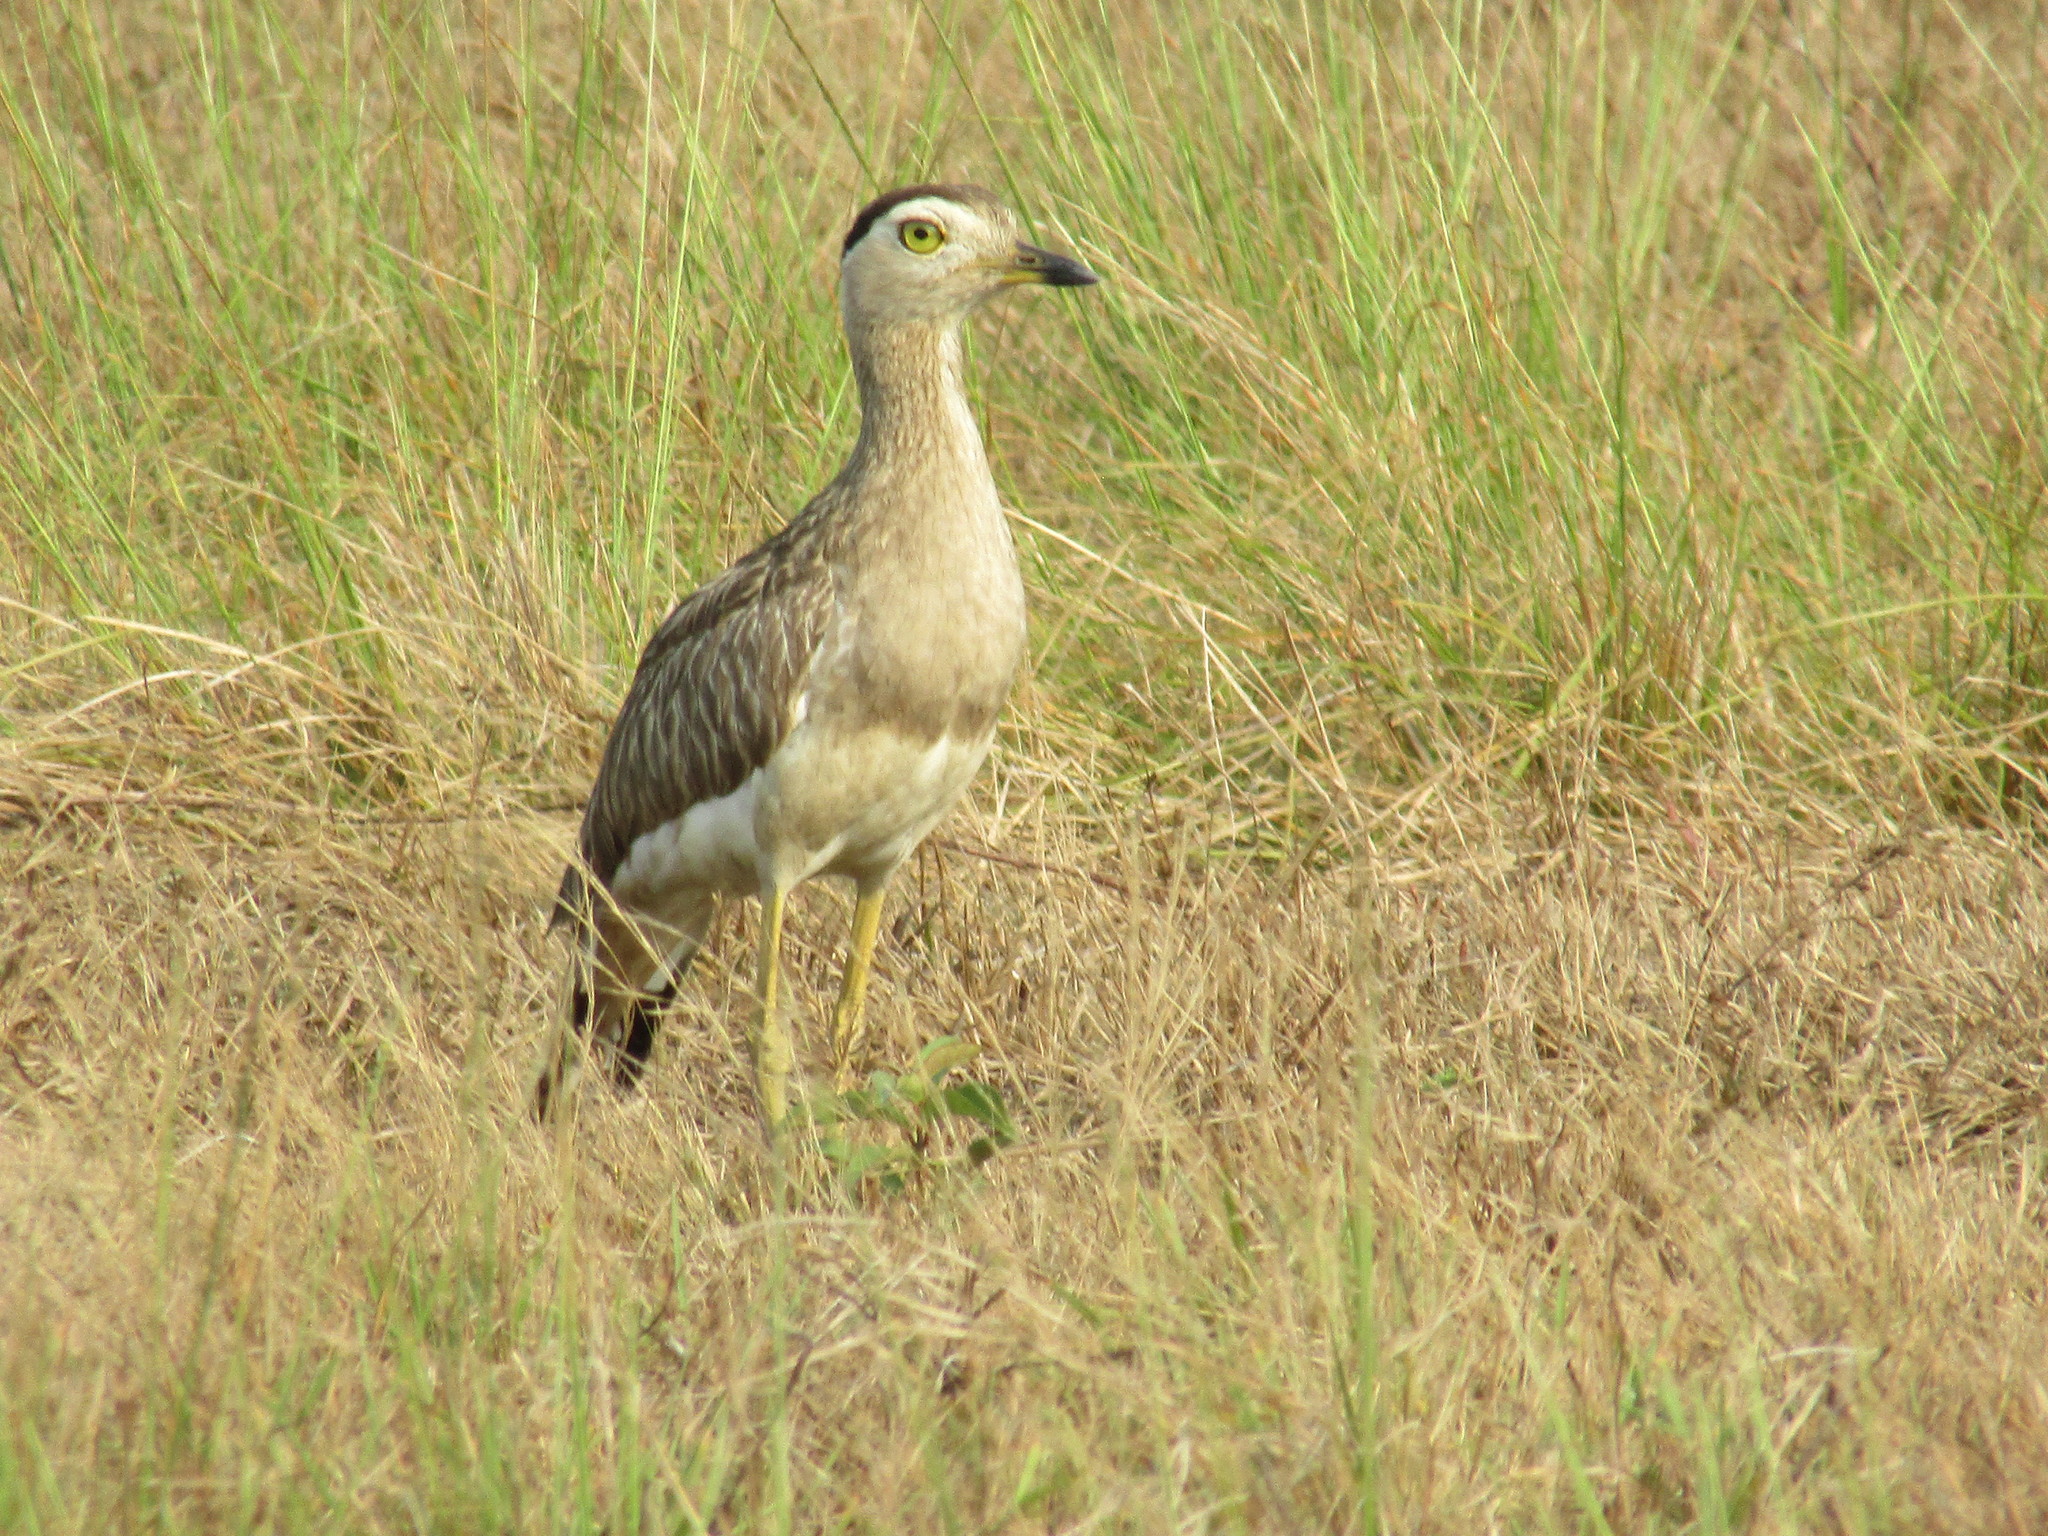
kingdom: Animalia
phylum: Chordata
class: Aves
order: Charadriiformes
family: Burhinidae
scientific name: Burhinidae
